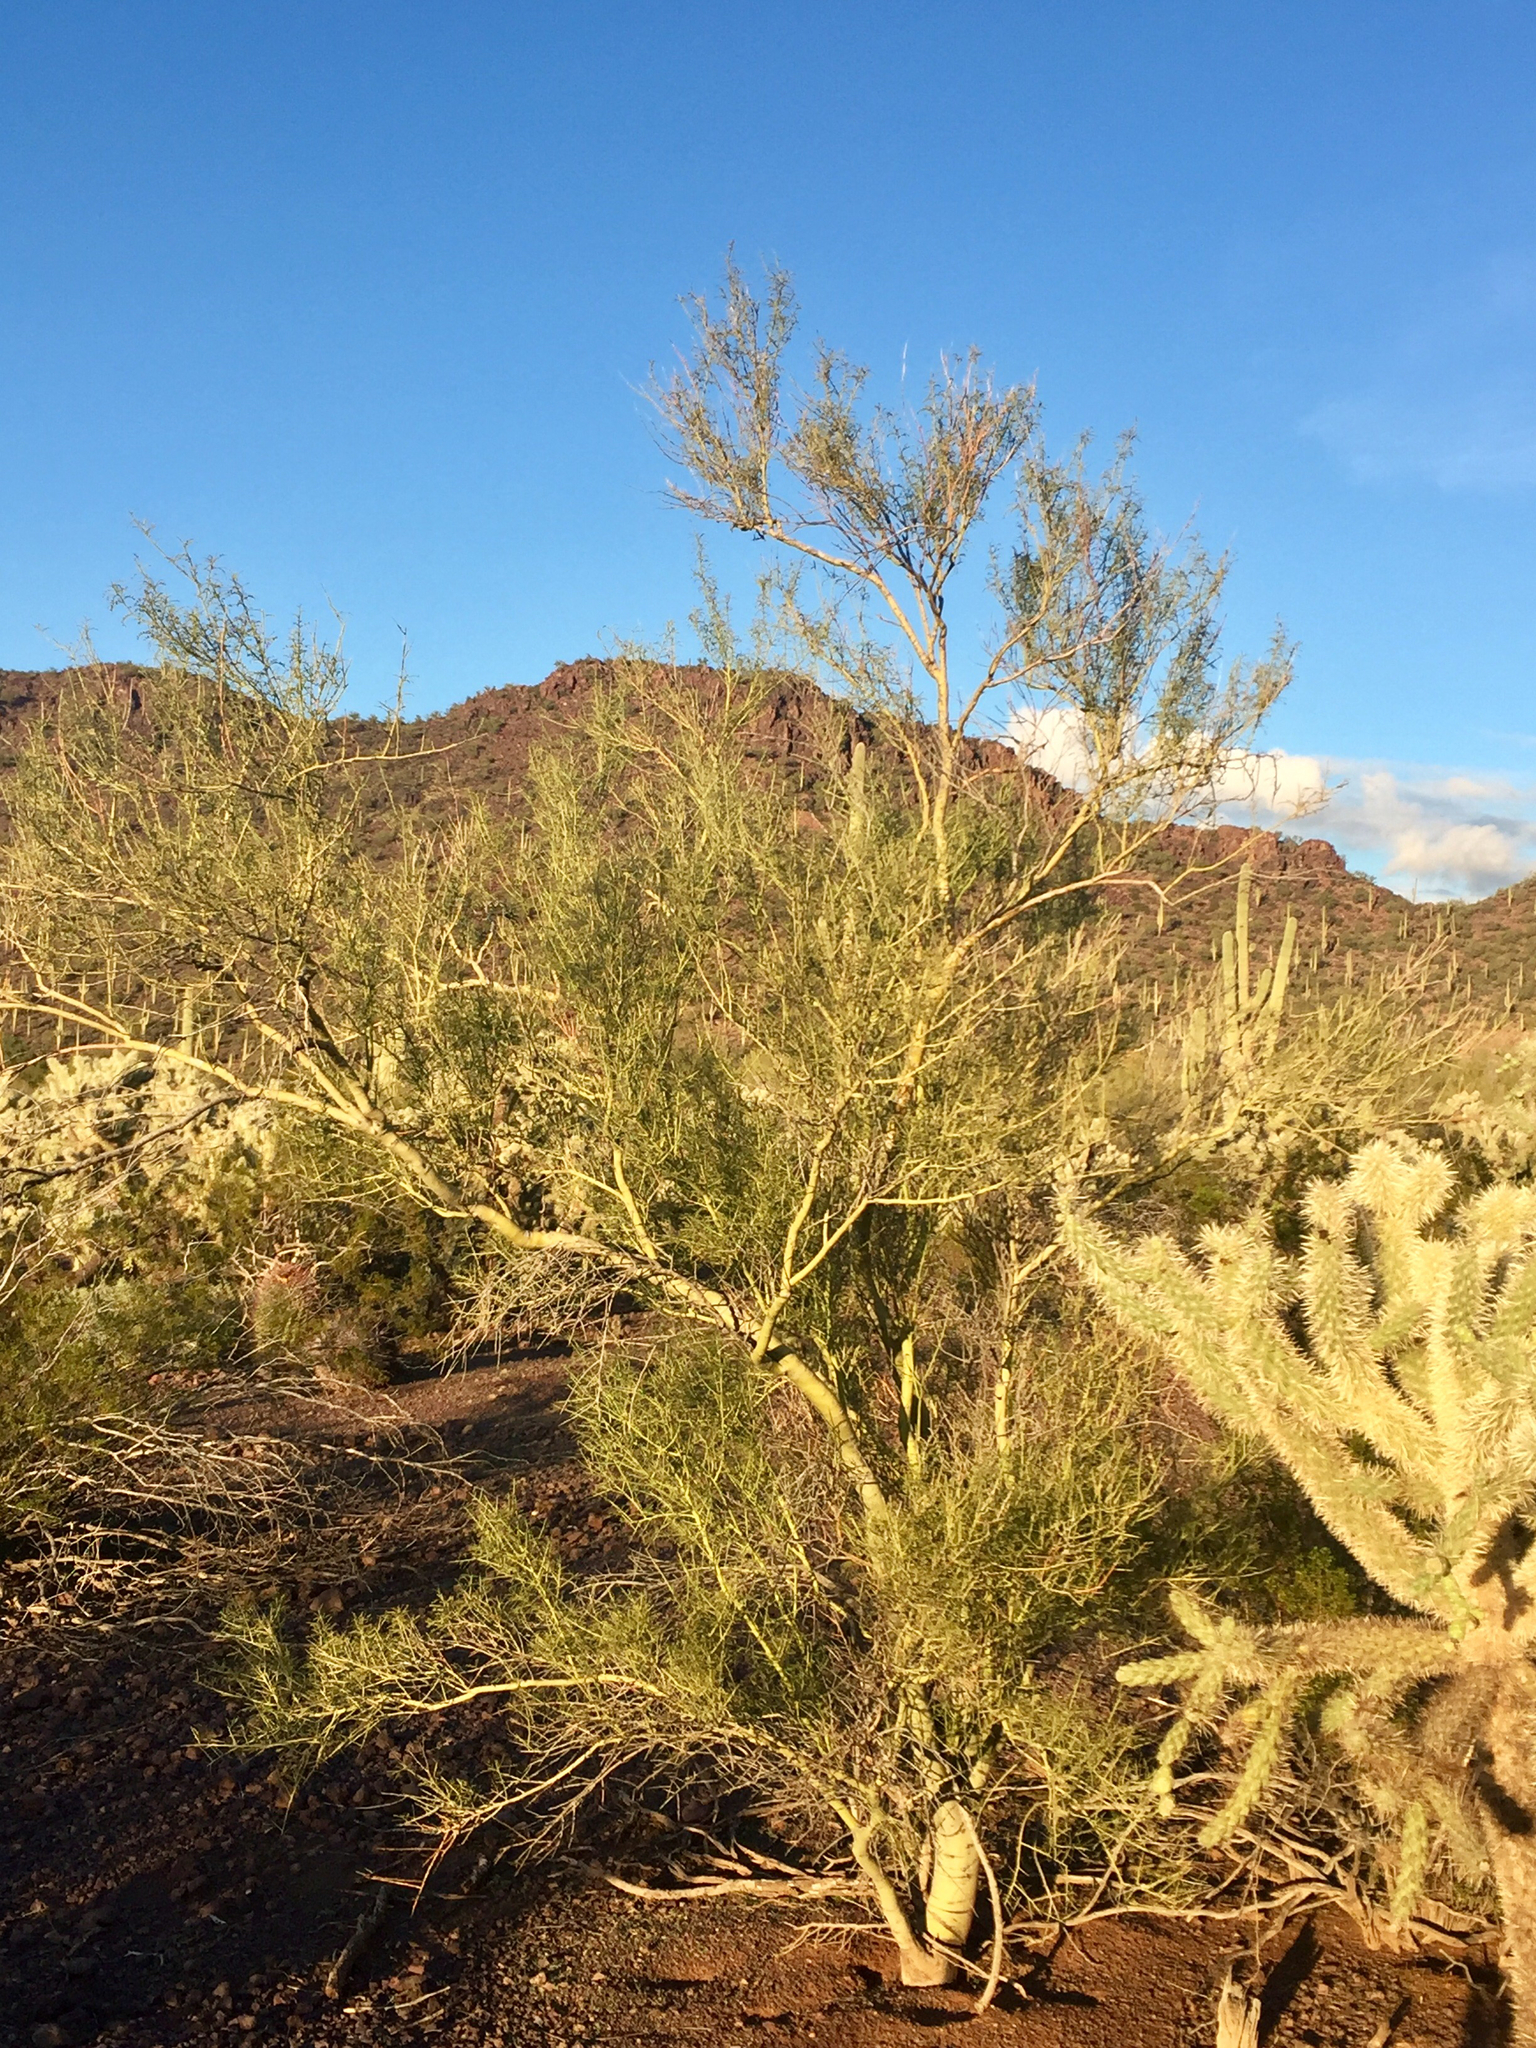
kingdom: Plantae
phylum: Tracheophyta
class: Magnoliopsida
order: Fabales
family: Fabaceae
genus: Parkinsonia
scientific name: Parkinsonia microphylla
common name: Yellow paloverde
